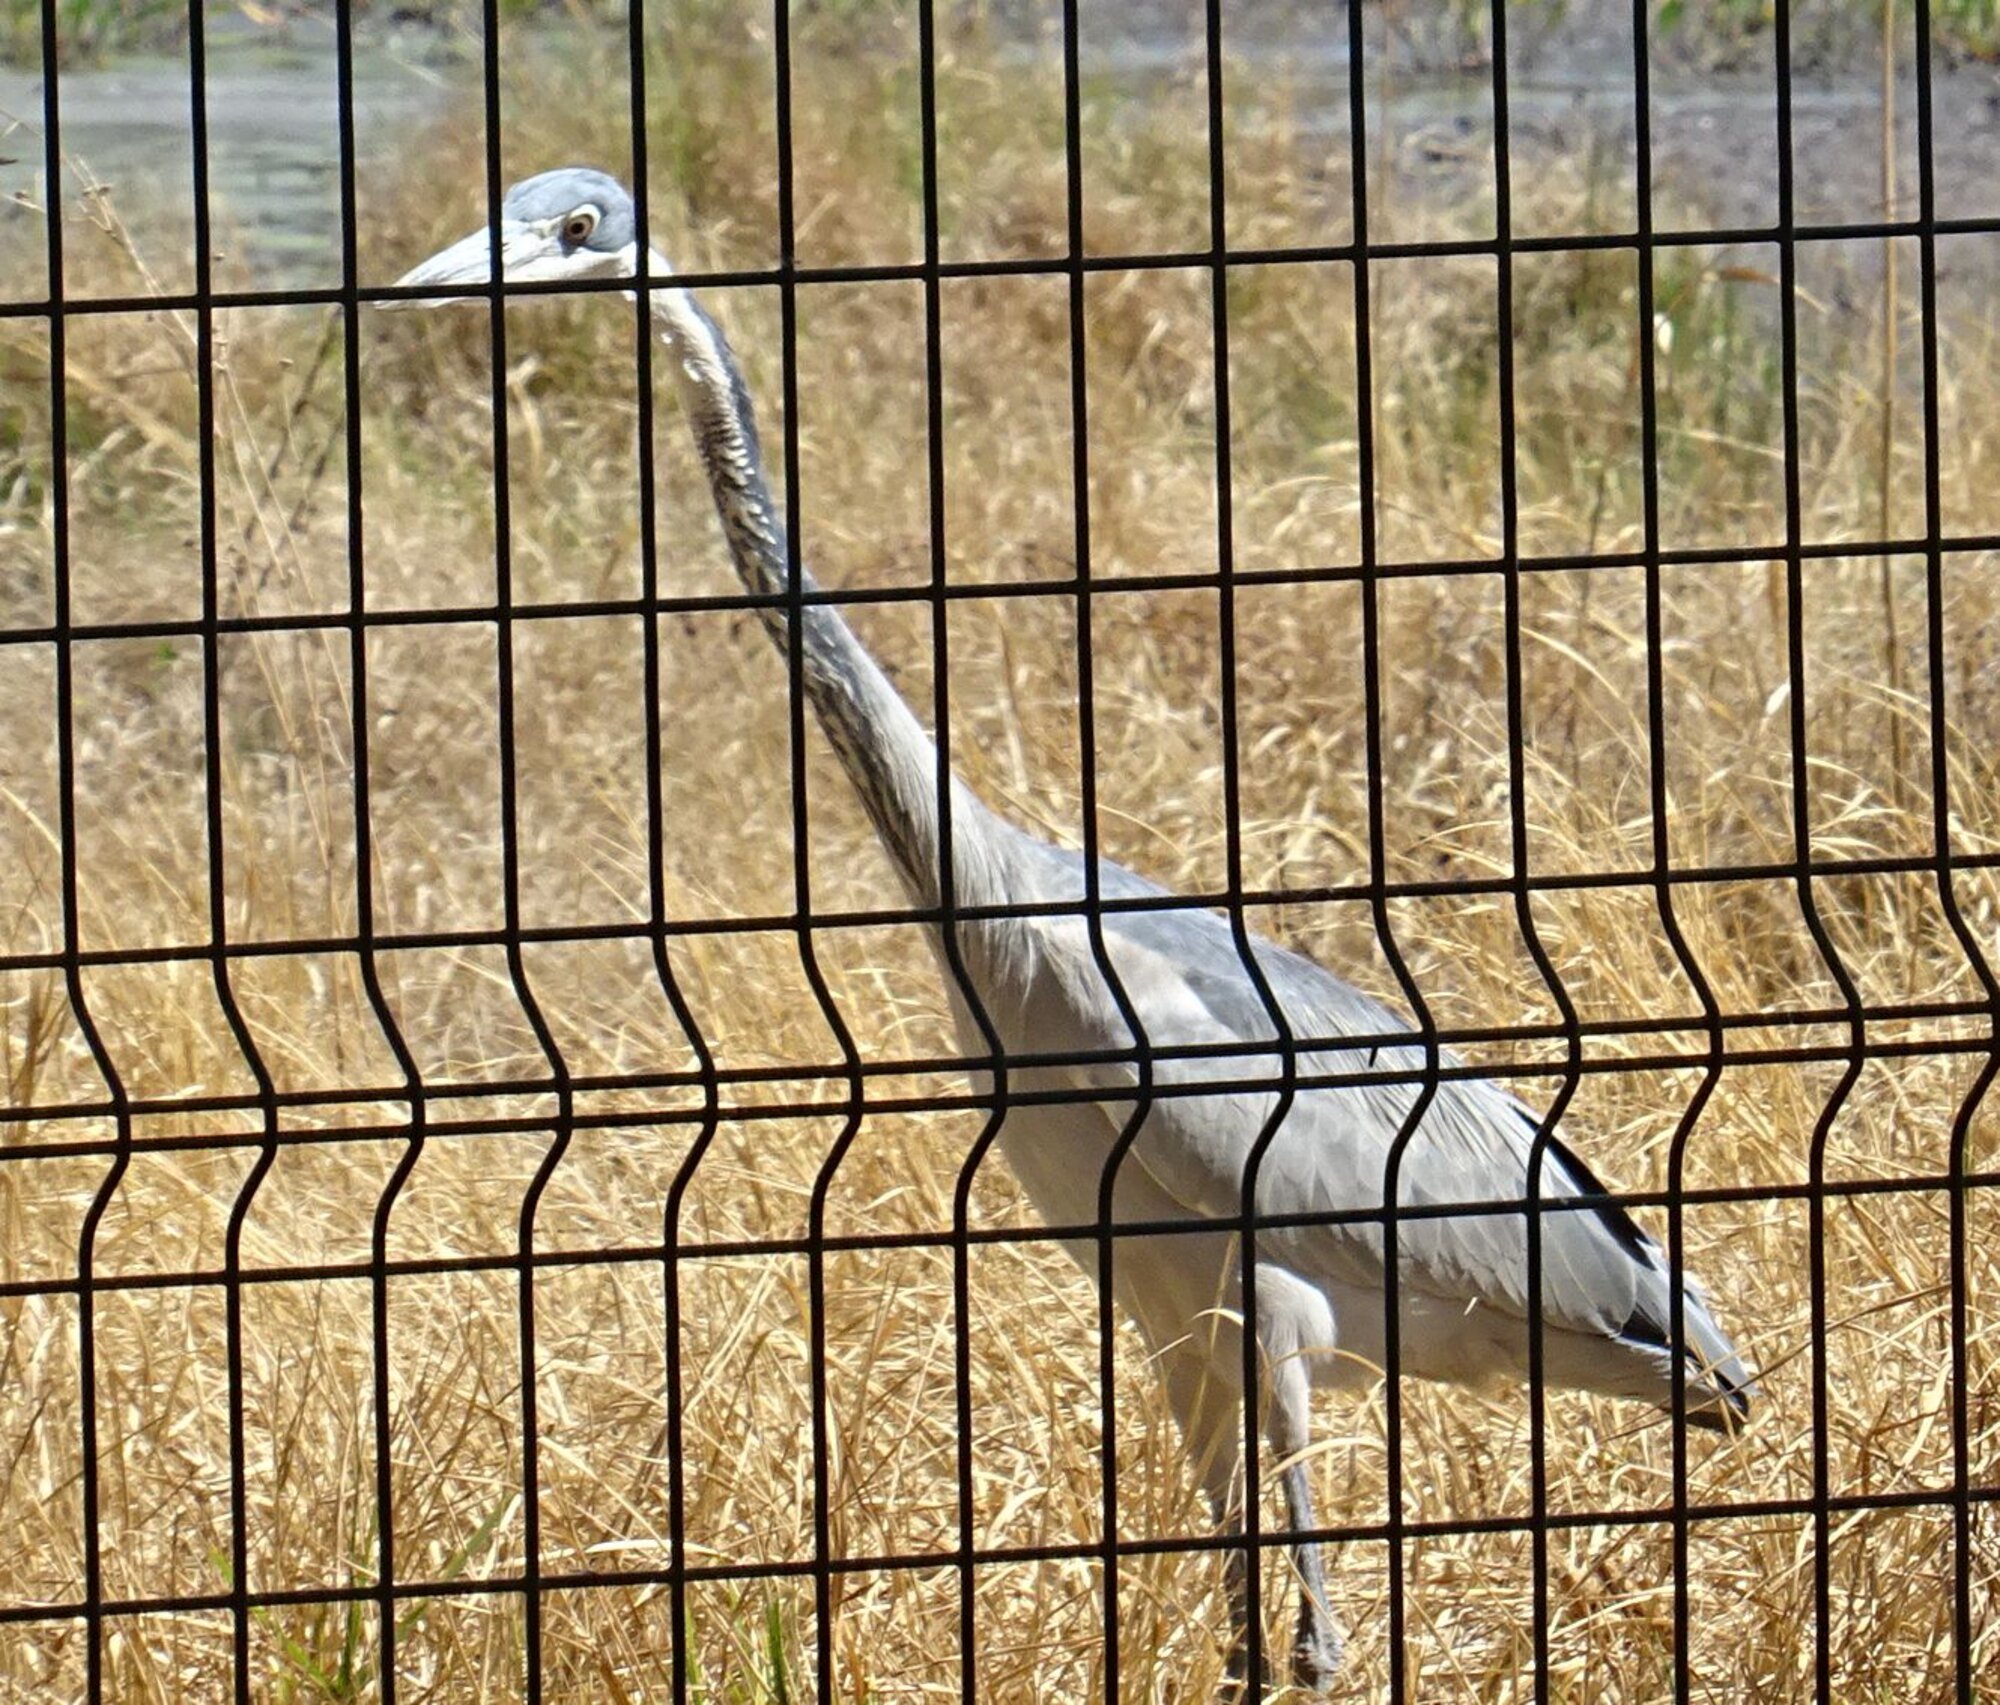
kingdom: Animalia
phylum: Chordata
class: Aves
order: Pelecaniformes
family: Ardeidae
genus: Ardea
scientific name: Ardea melanocephala
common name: Black-headed heron
